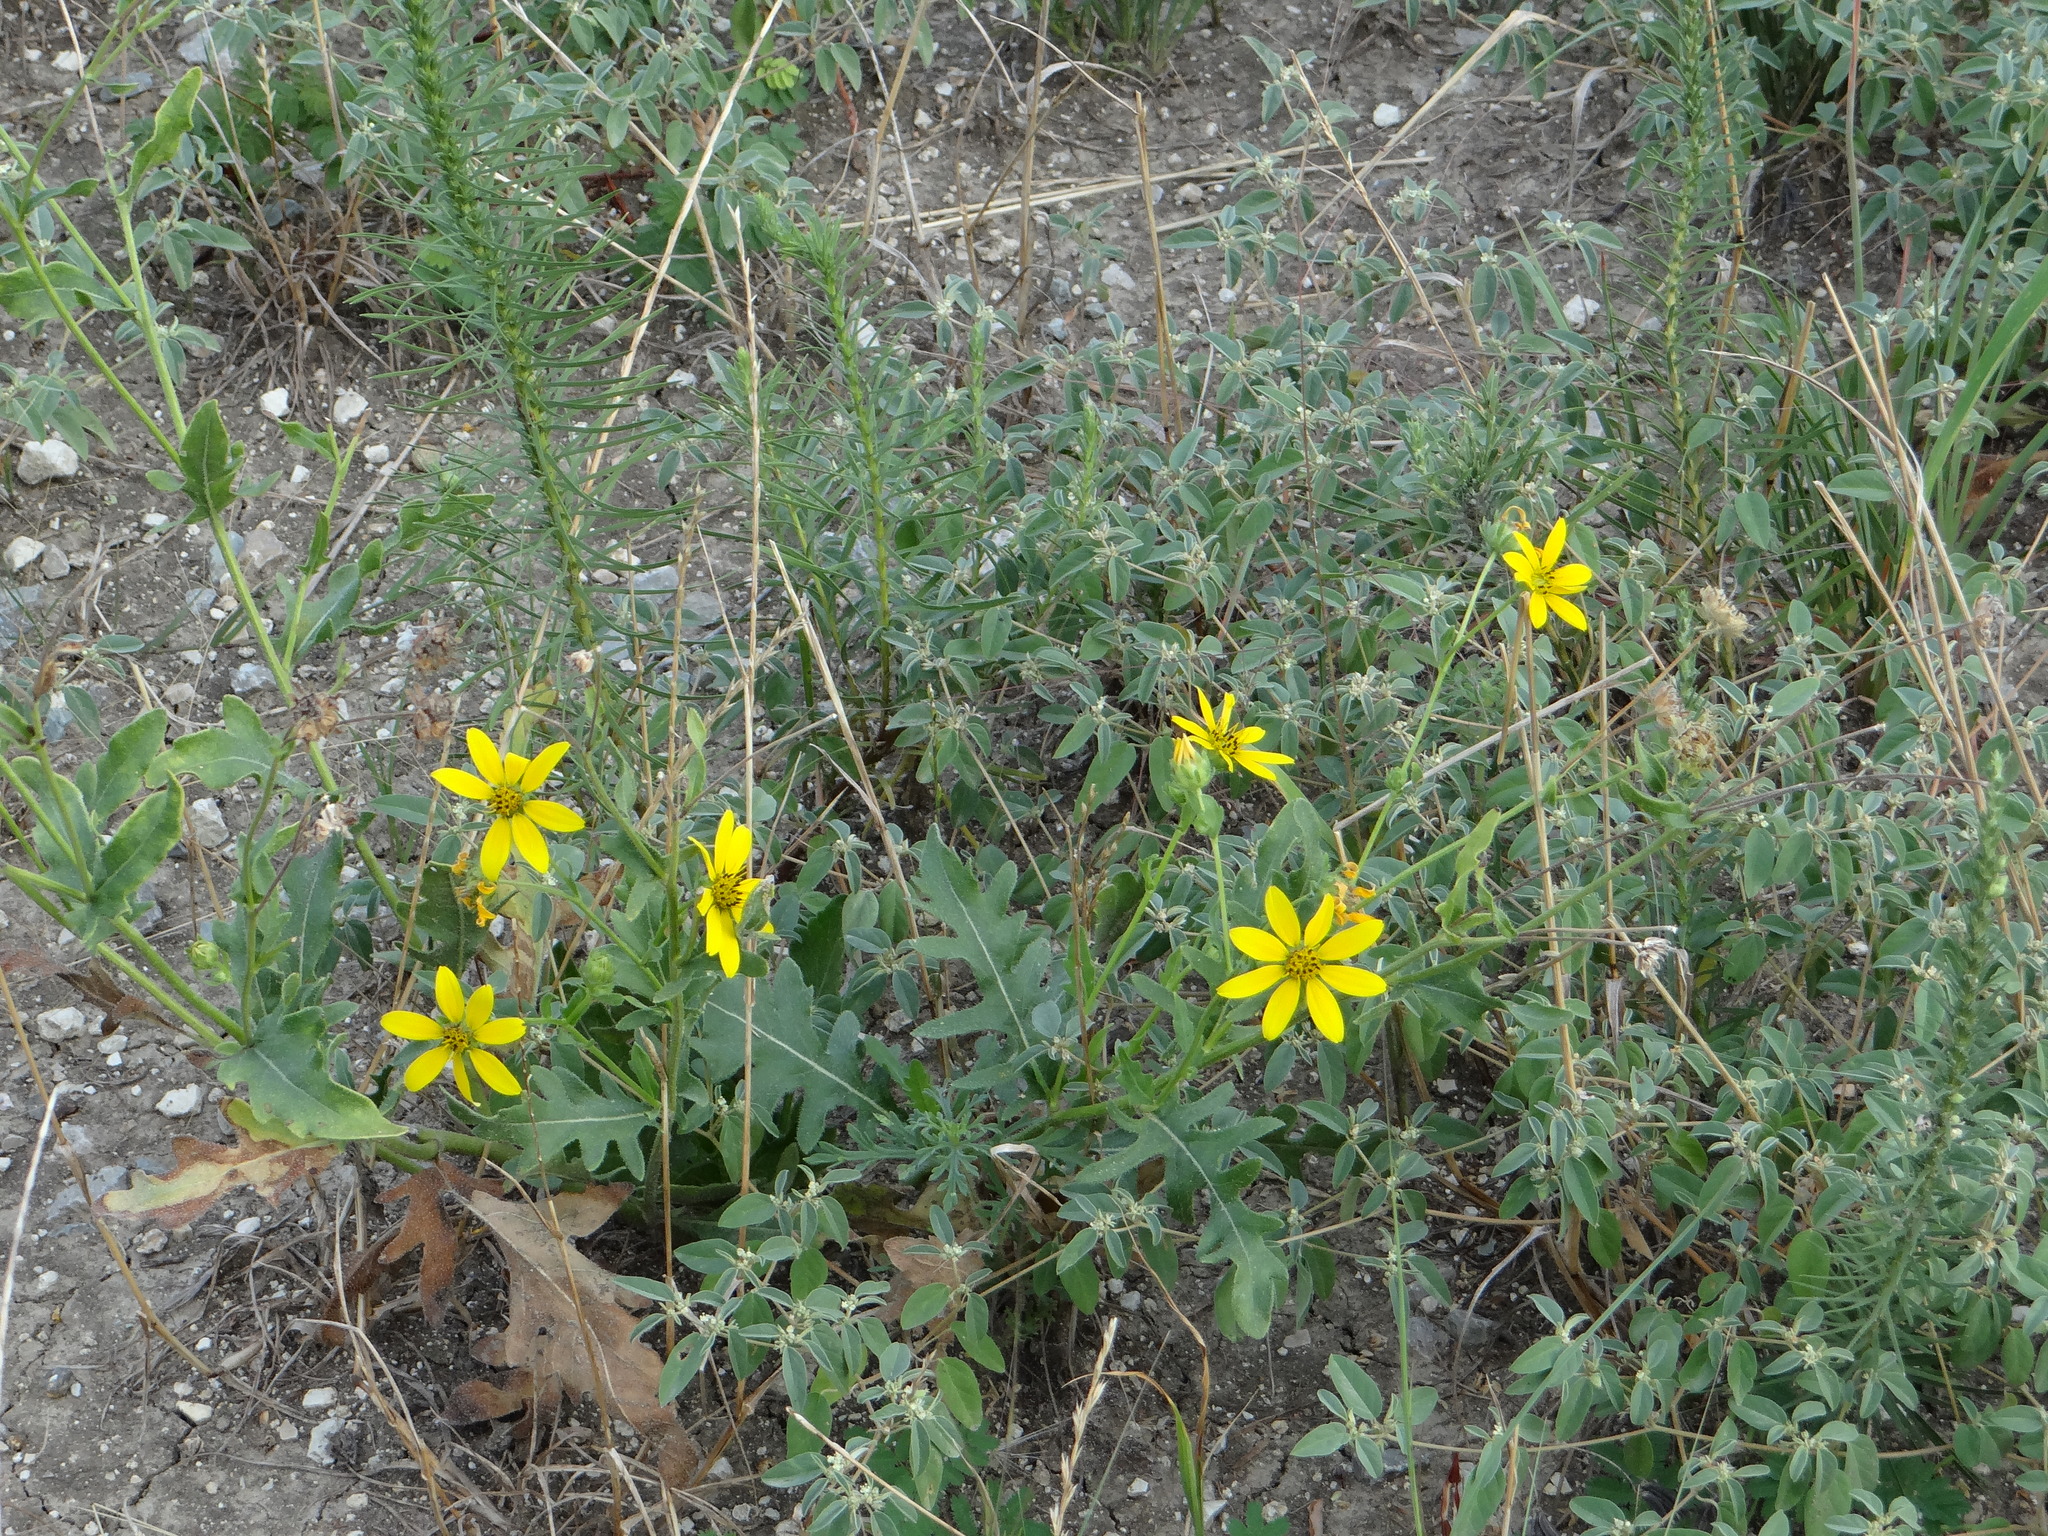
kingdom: Plantae
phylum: Tracheophyta
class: Magnoliopsida
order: Asterales
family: Asteraceae
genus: Engelmannia
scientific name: Engelmannia peristenia
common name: Engelmann's daisy
